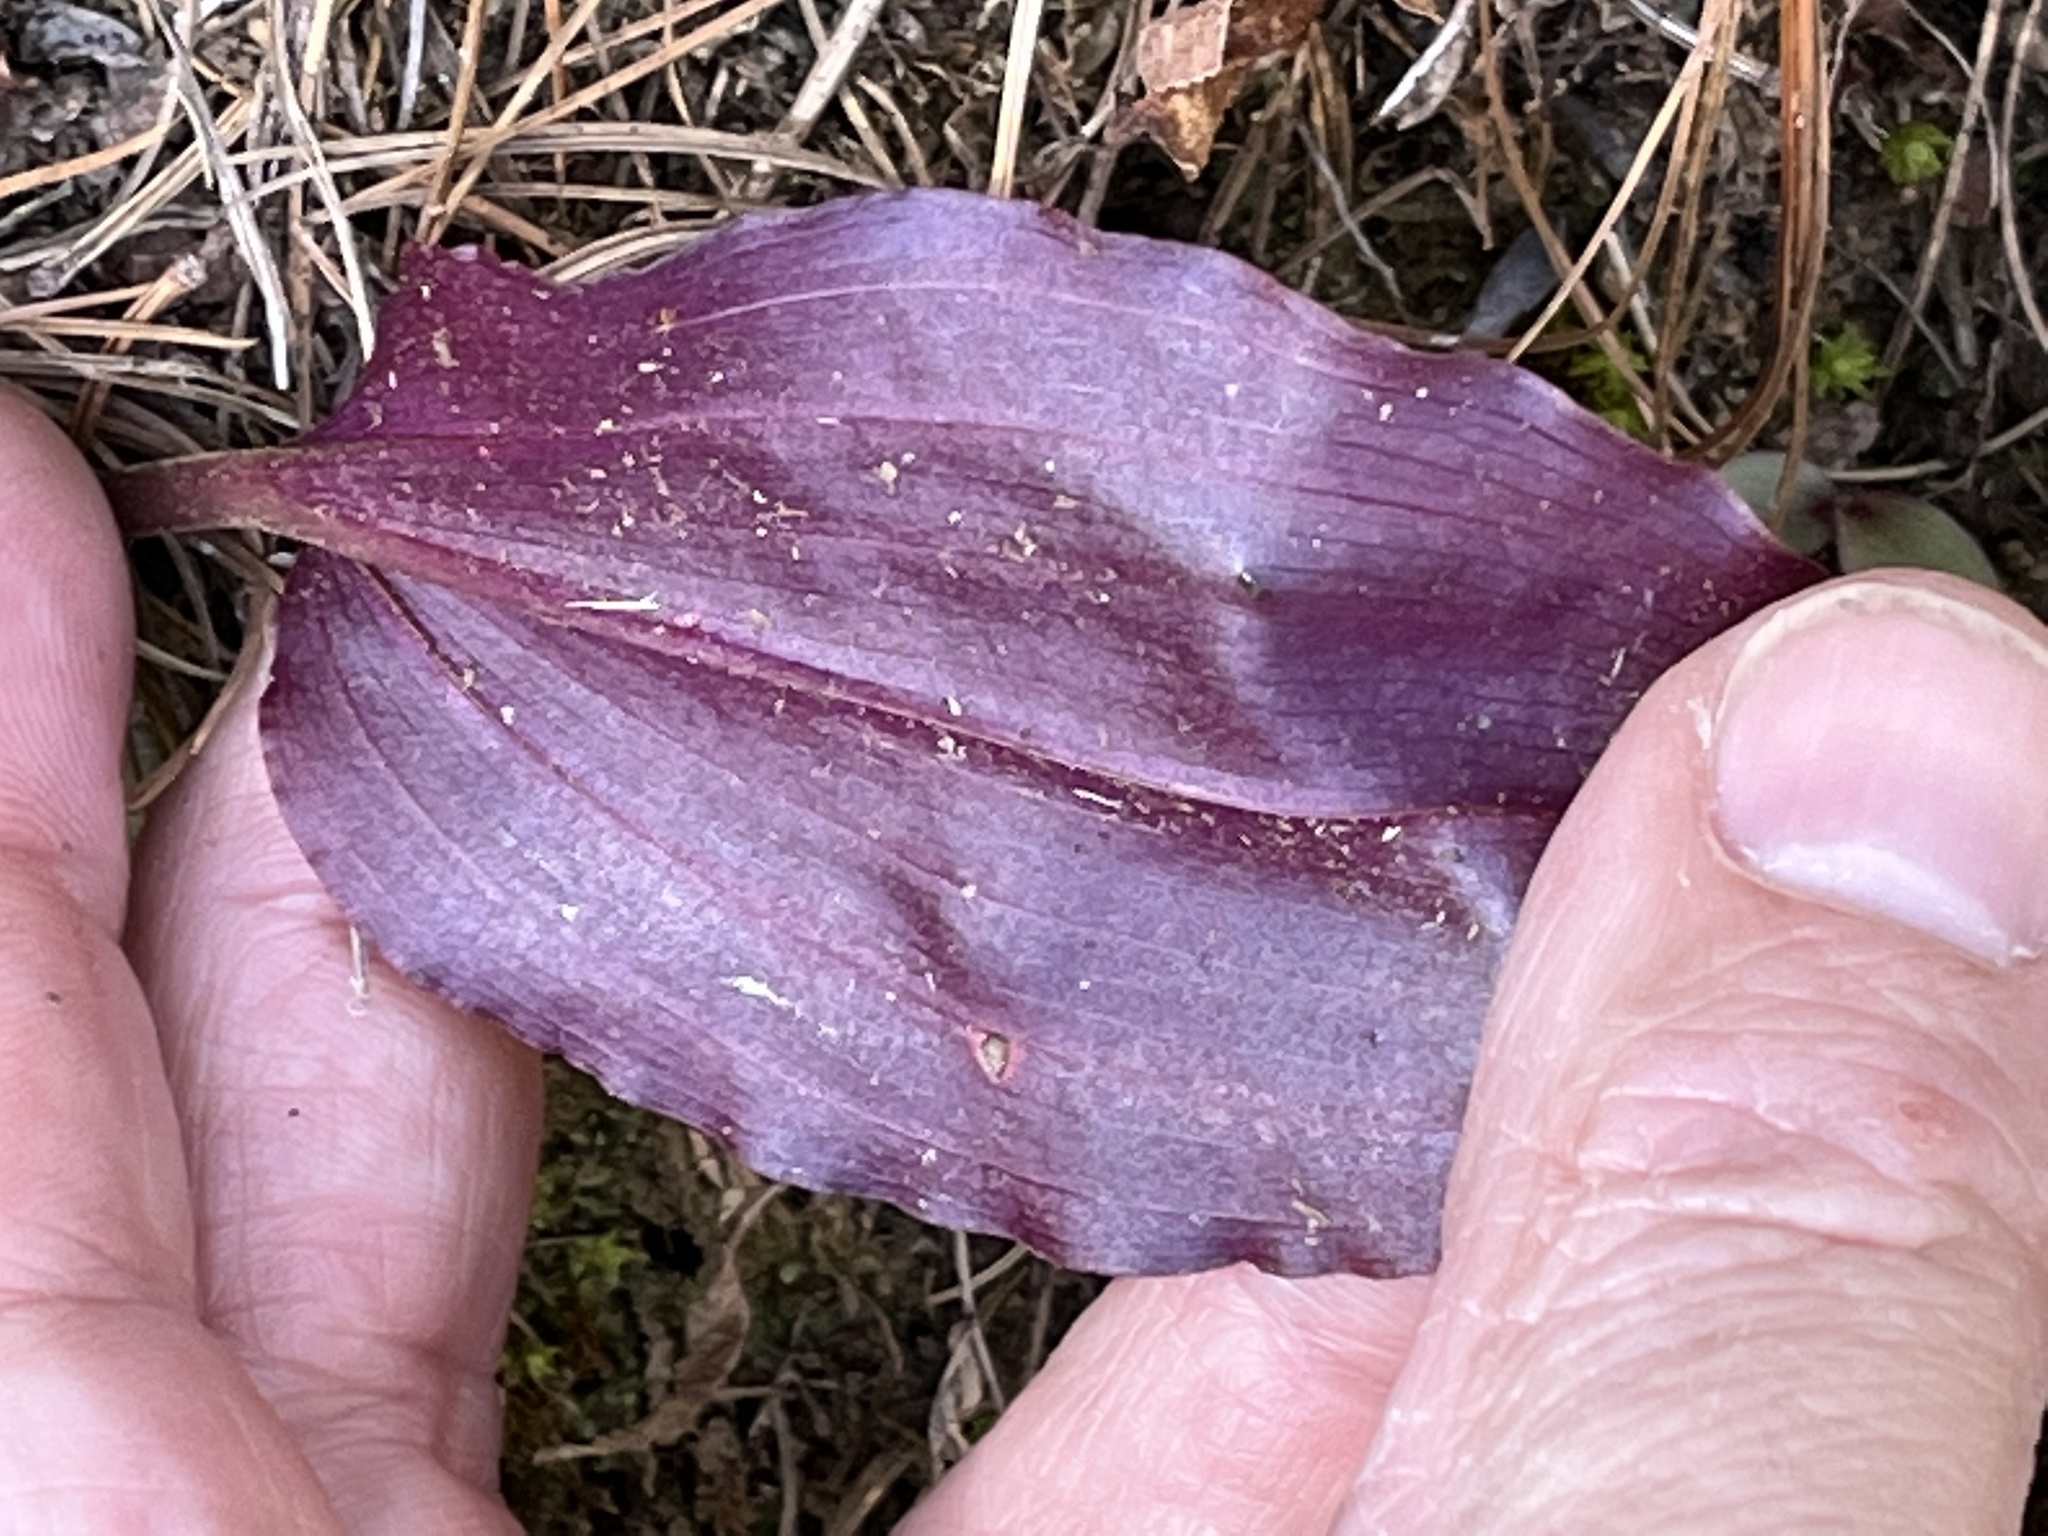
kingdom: Plantae
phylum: Tracheophyta
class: Liliopsida
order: Asparagales
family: Orchidaceae
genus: Tipularia
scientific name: Tipularia discolor
